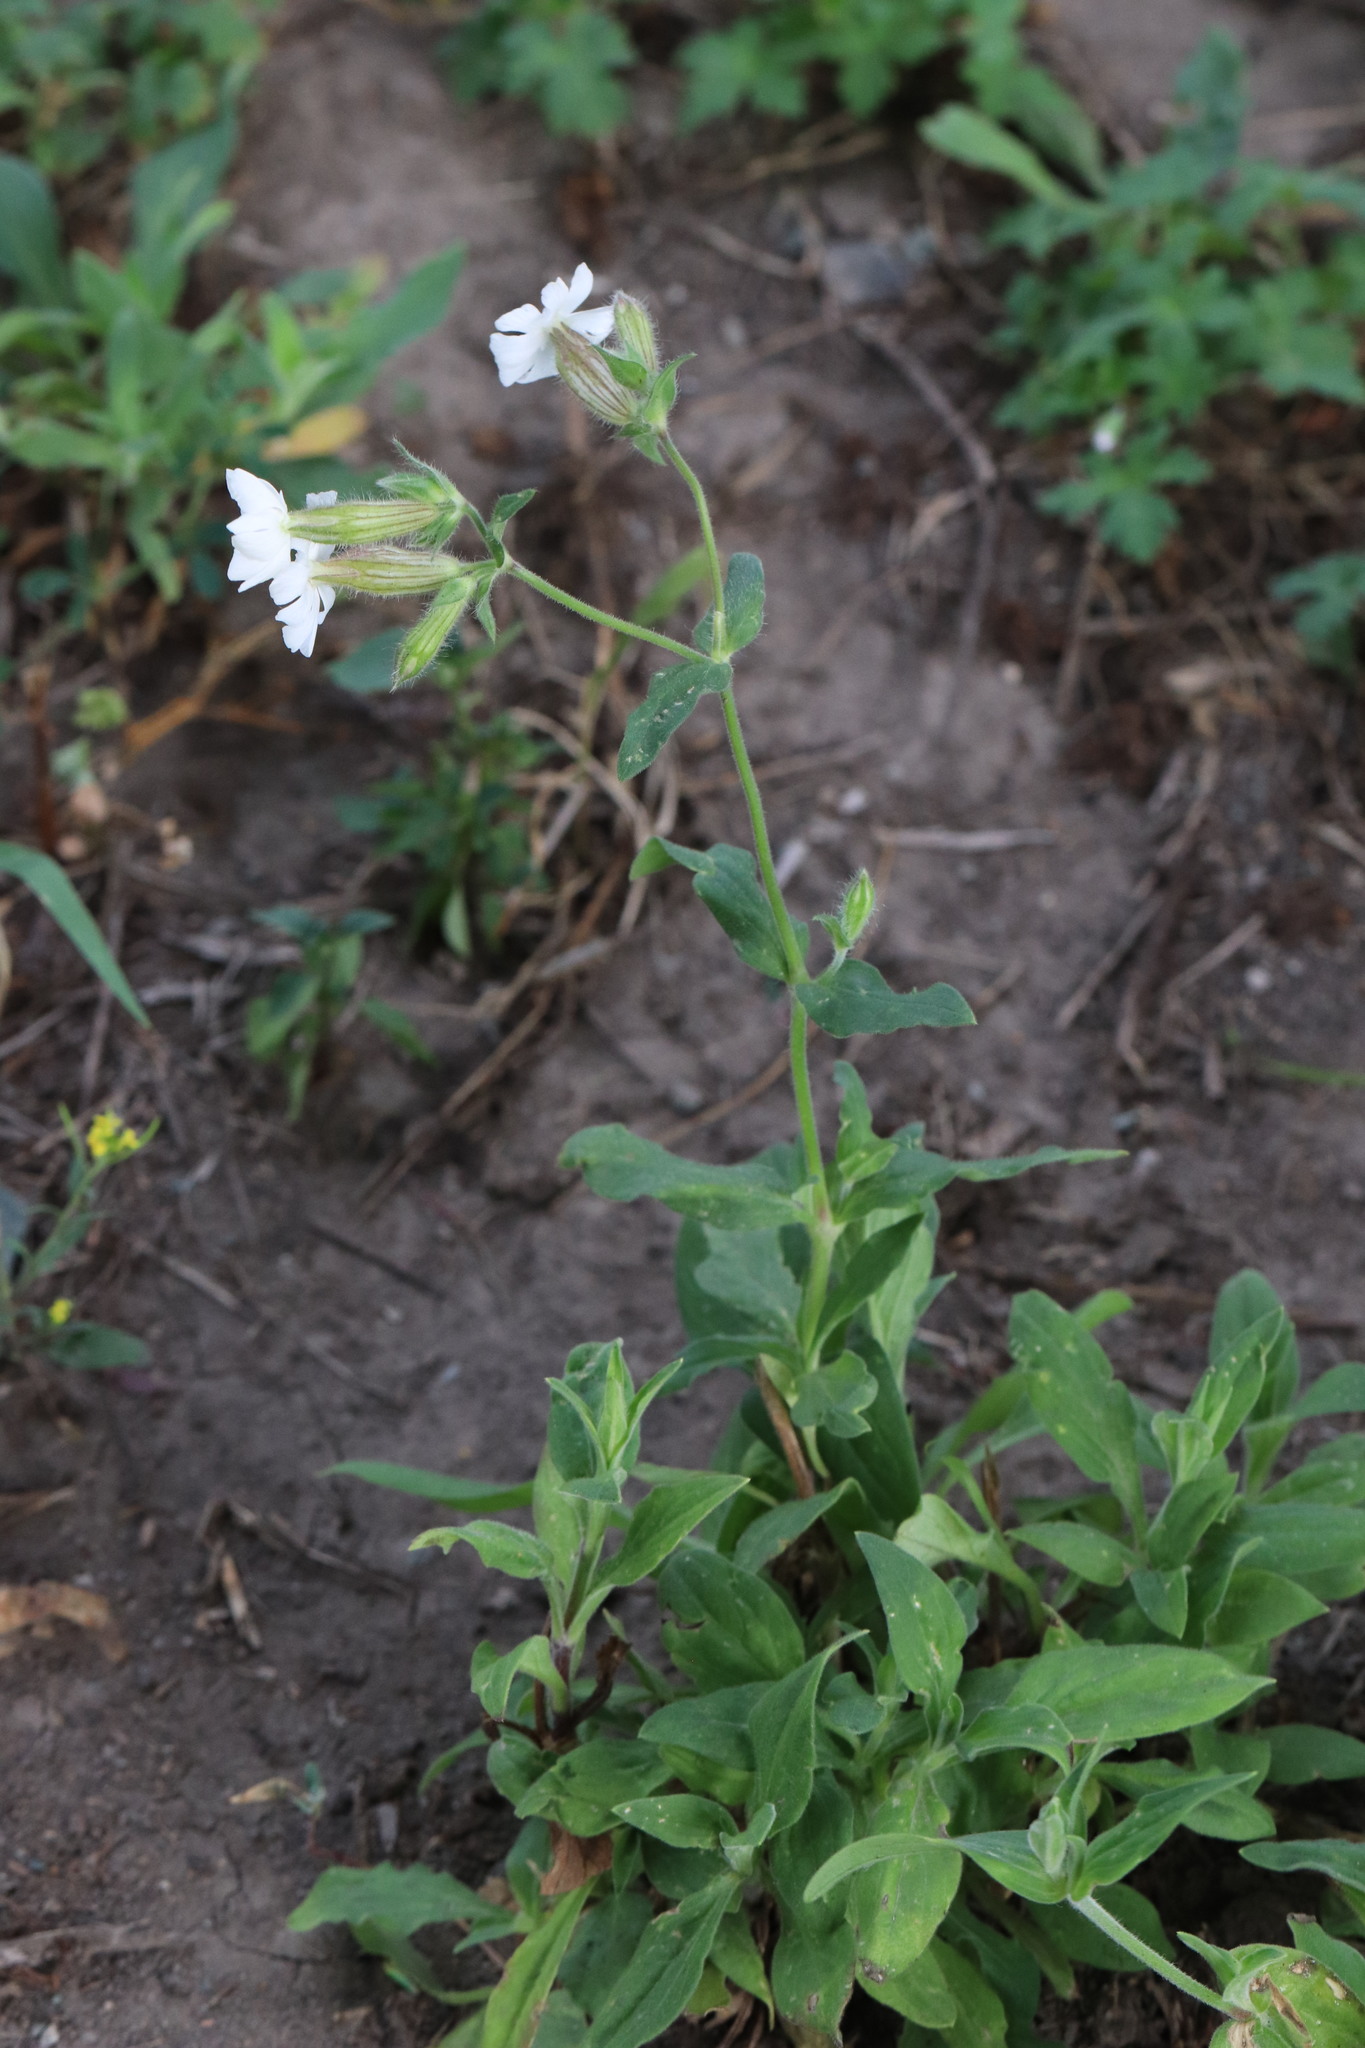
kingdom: Plantae
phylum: Tracheophyta
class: Magnoliopsida
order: Caryophyllales
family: Caryophyllaceae
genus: Silene
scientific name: Silene latifolia
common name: White campion
